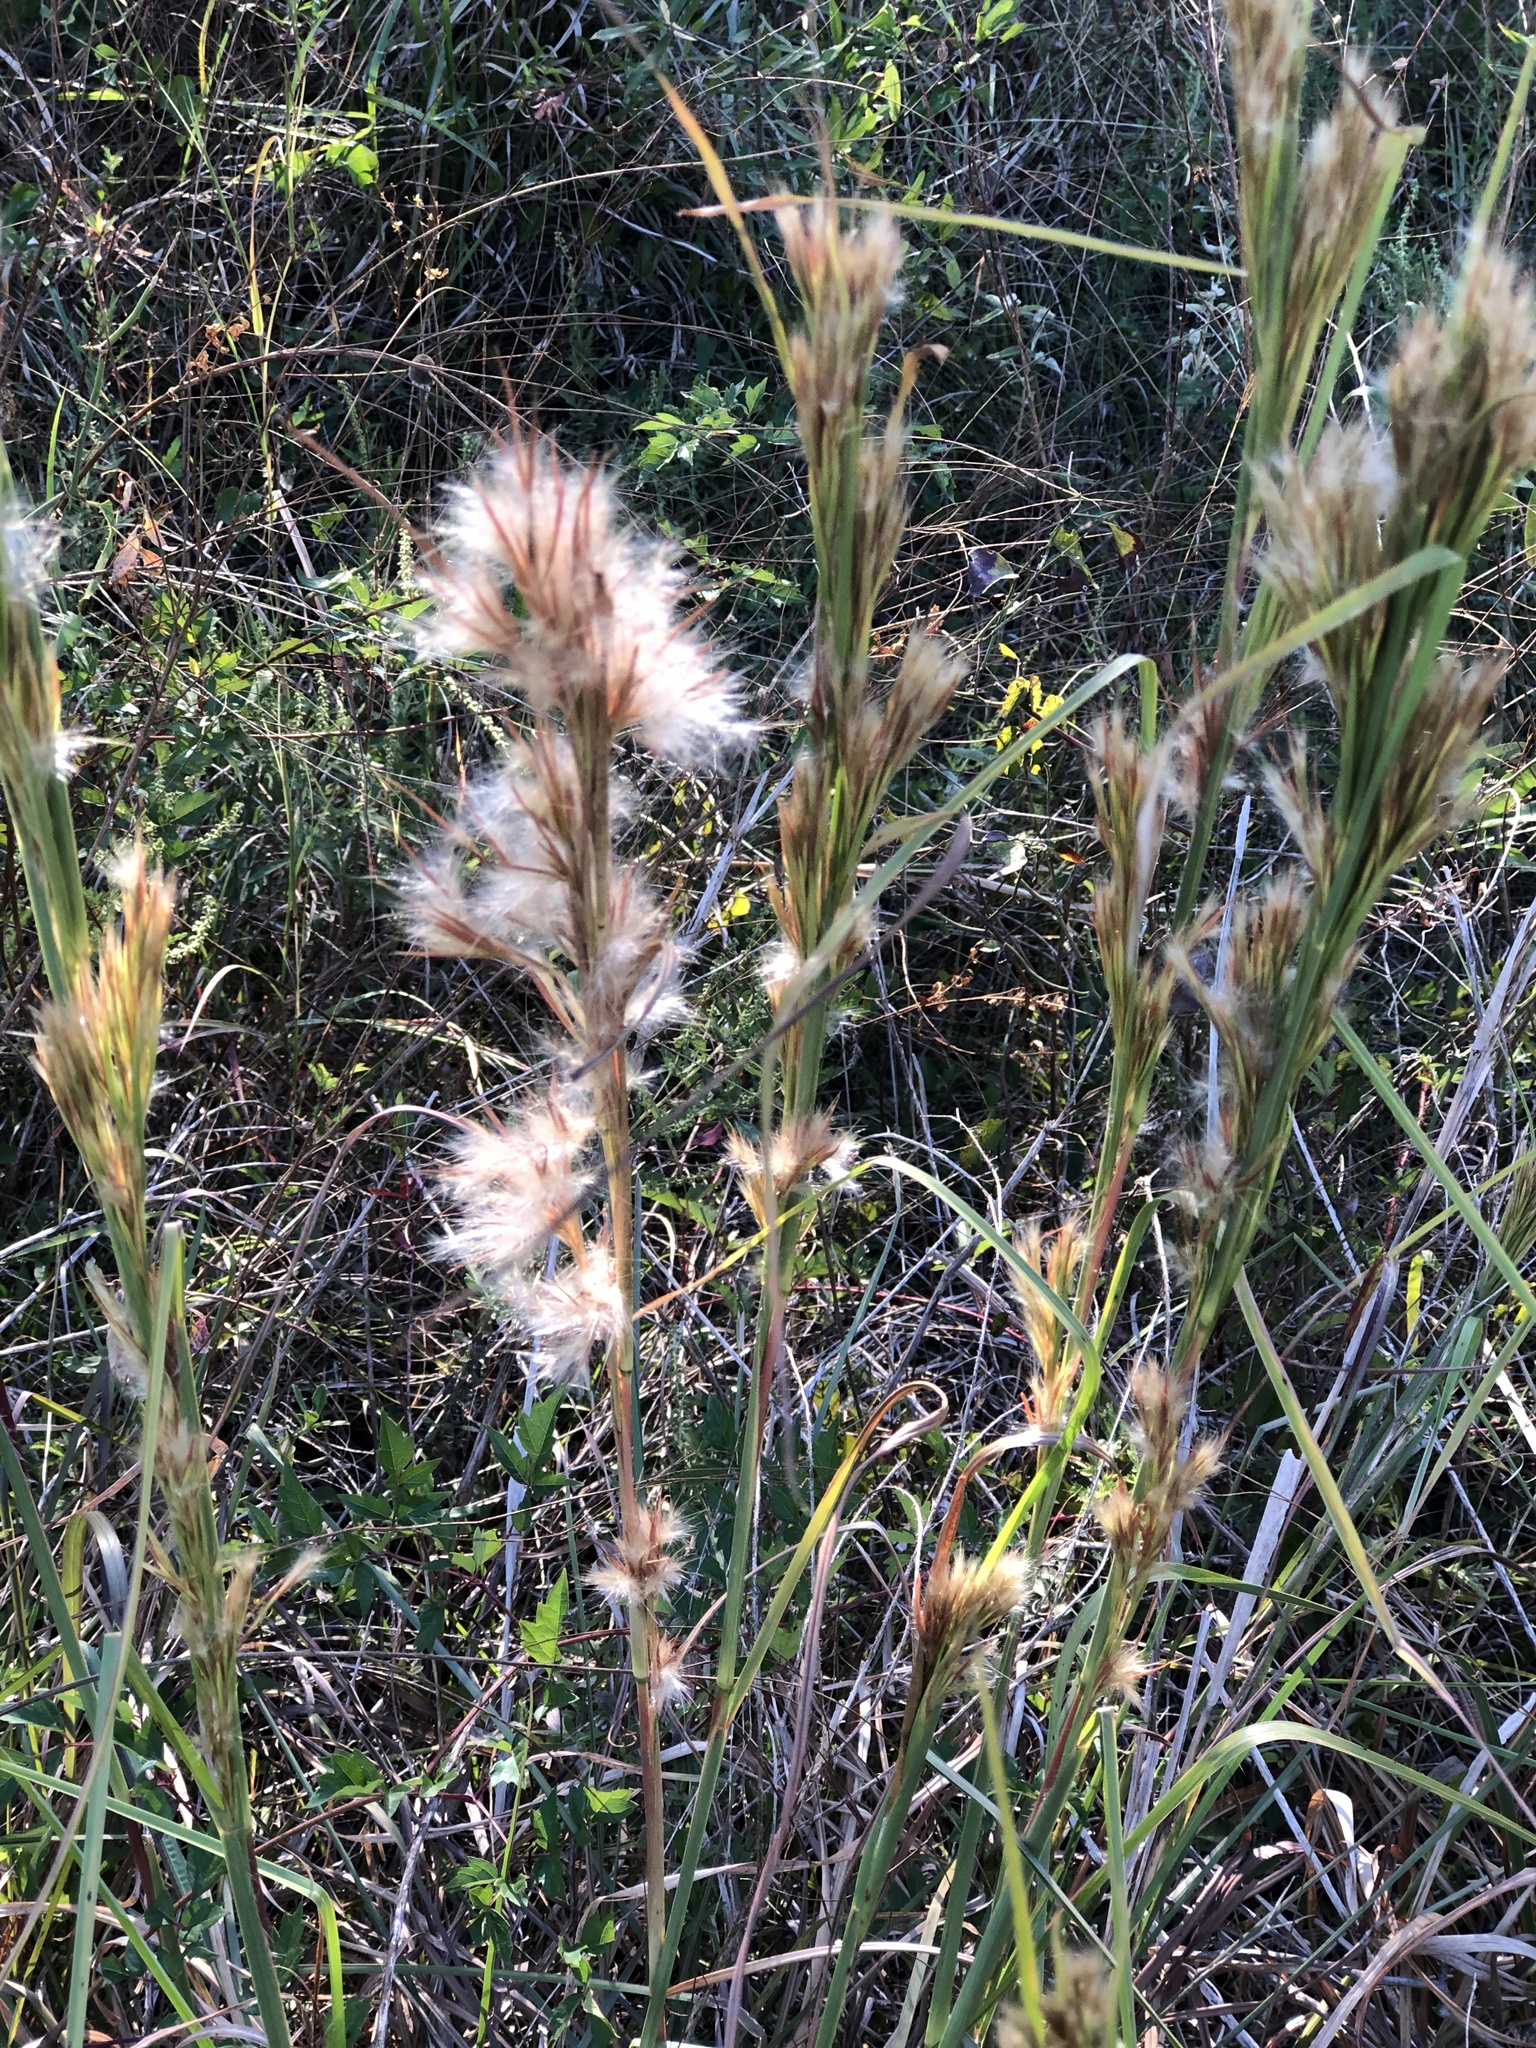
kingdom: Plantae
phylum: Tracheophyta
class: Liliopsida
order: Poales
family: Poaceae
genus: Andropogon
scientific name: Andropogon tenuispatheus
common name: Bushy bluestem
